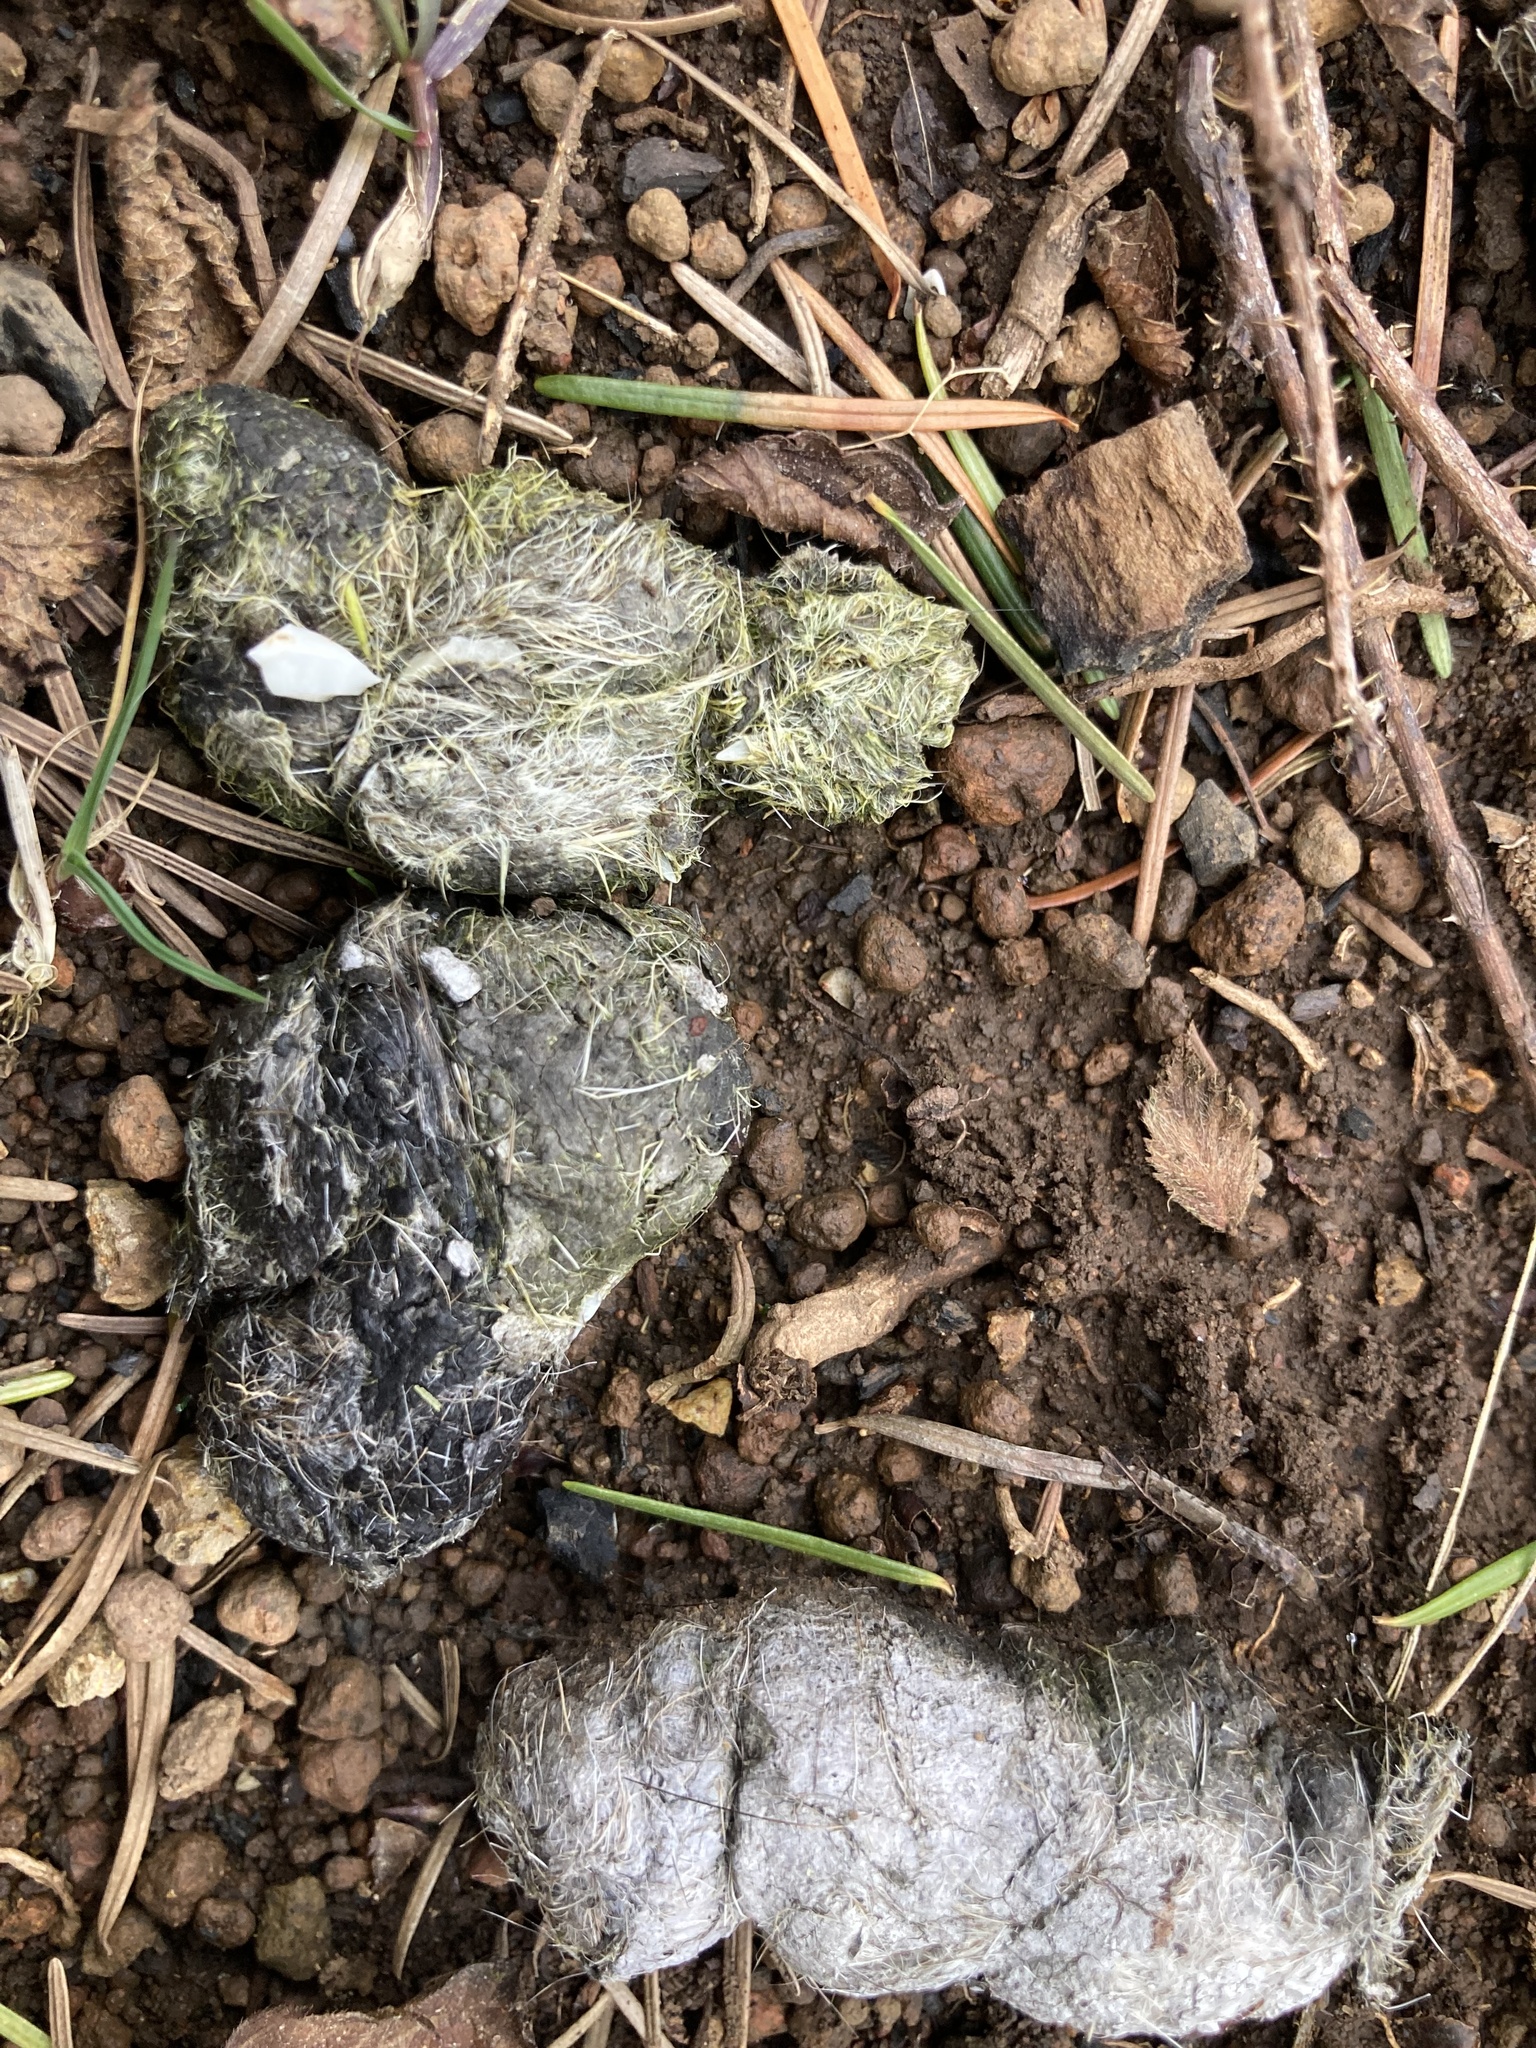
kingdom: Animalia
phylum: Chordata
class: Mammalia
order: Carnivora
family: Canidae
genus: Canis
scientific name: Canis latrans
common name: Coyote
